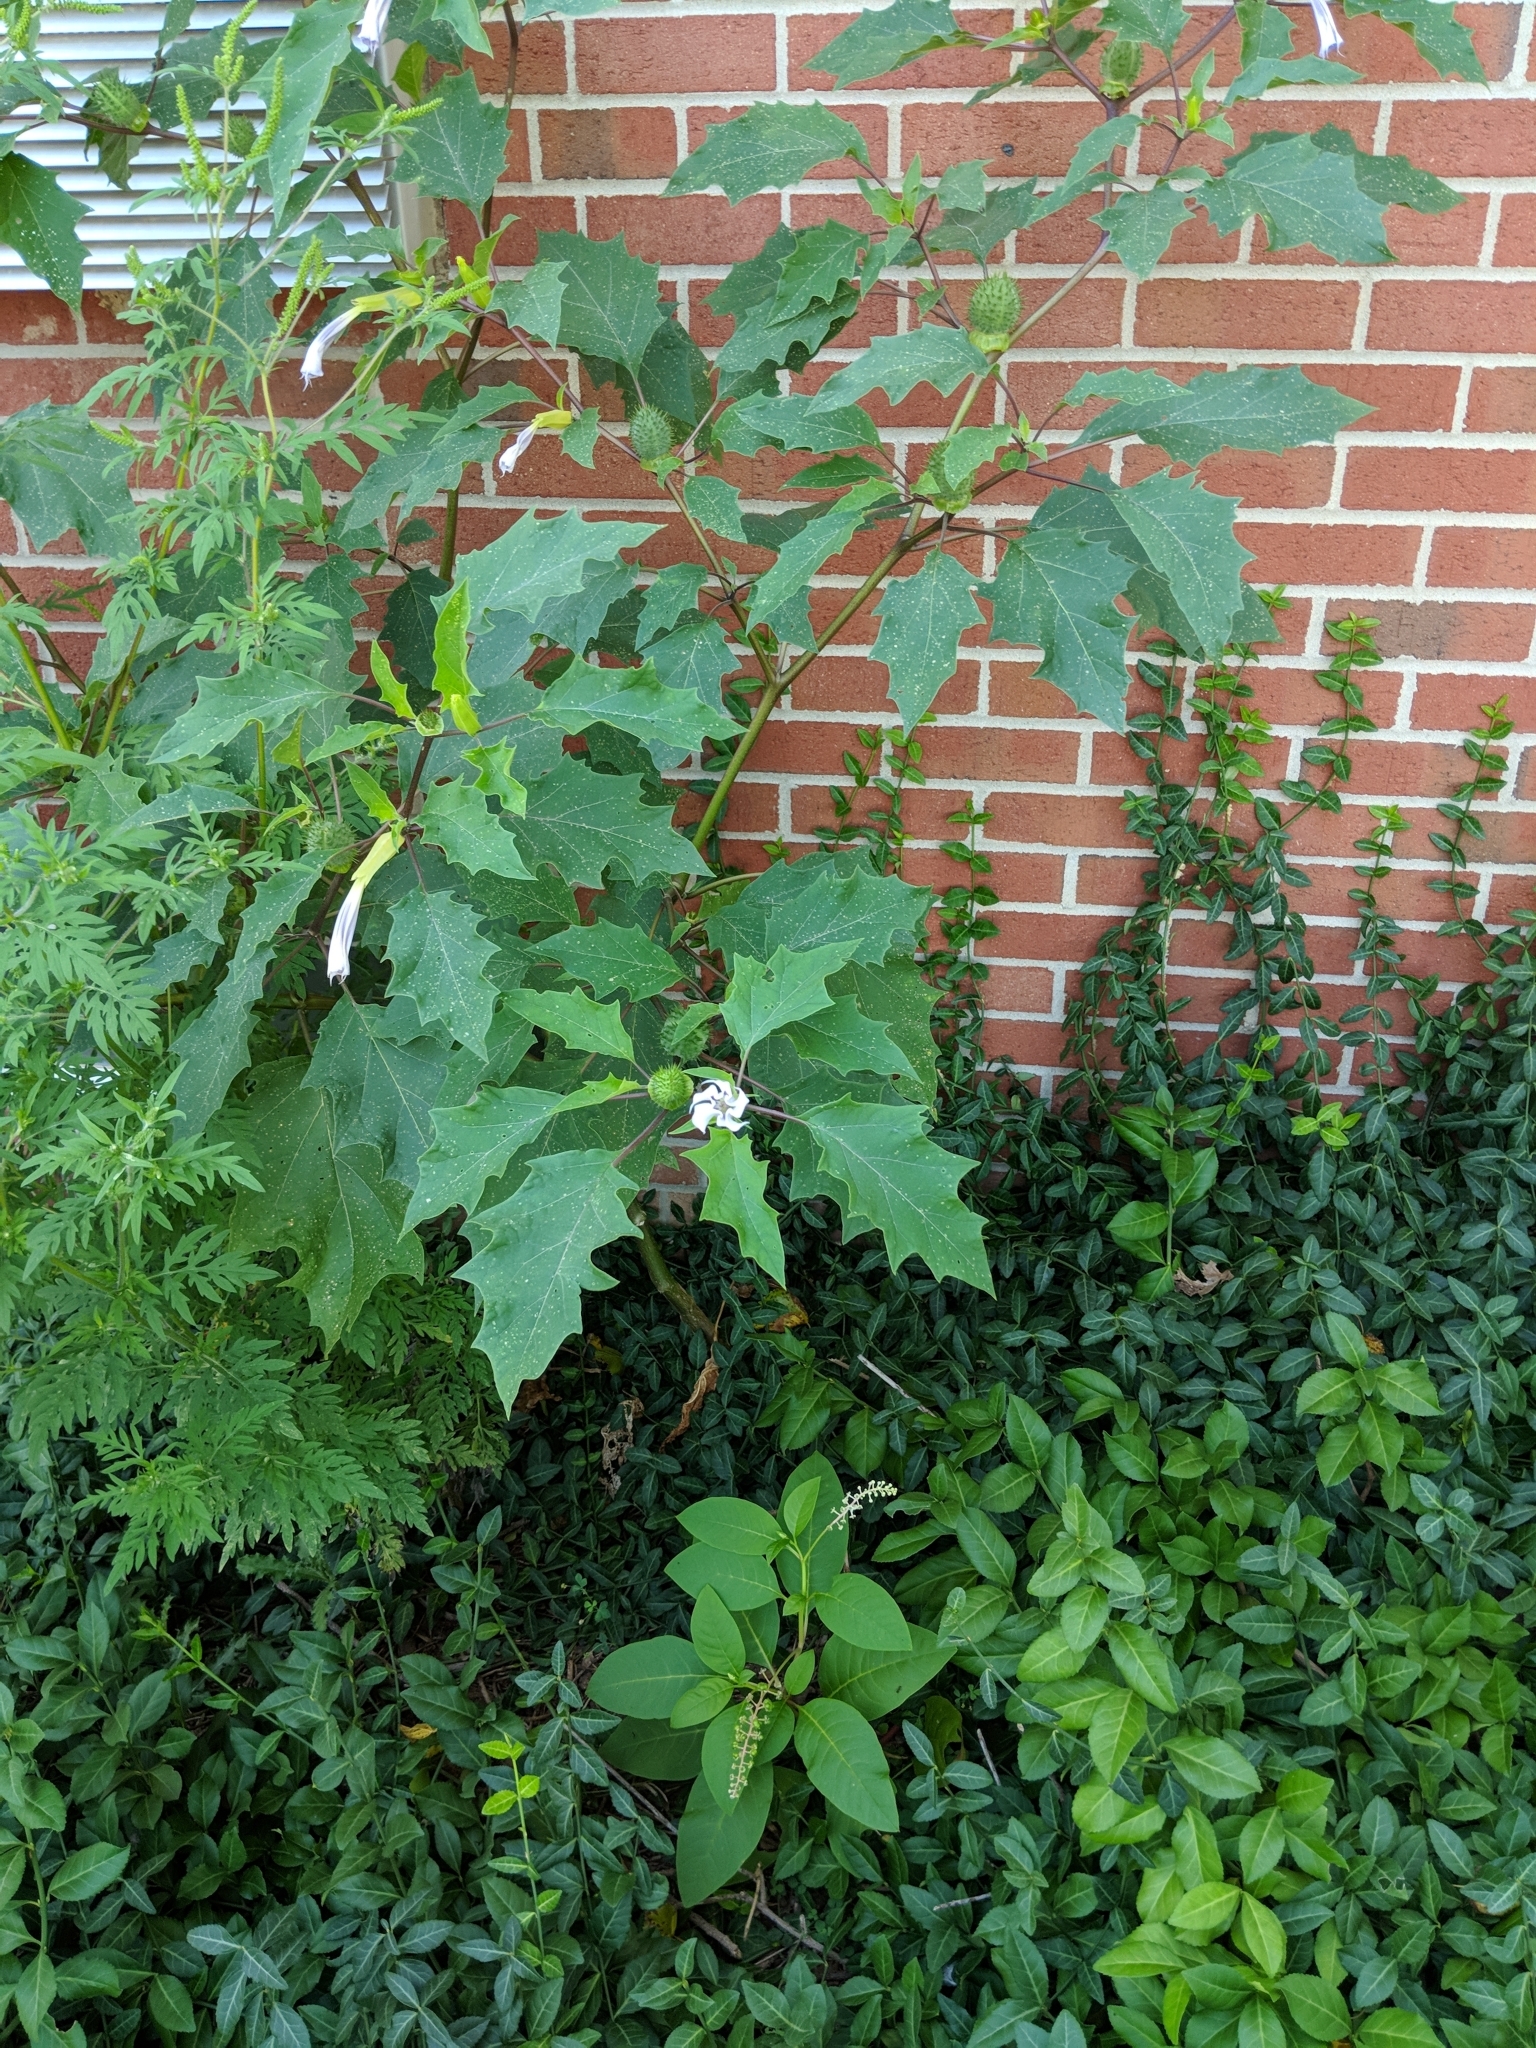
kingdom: Plantae
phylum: Tracheophyta
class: Magnoliopsida
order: Solanales
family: Solanaceae
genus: Datura
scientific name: Datura stramonium
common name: Thorn-apple
